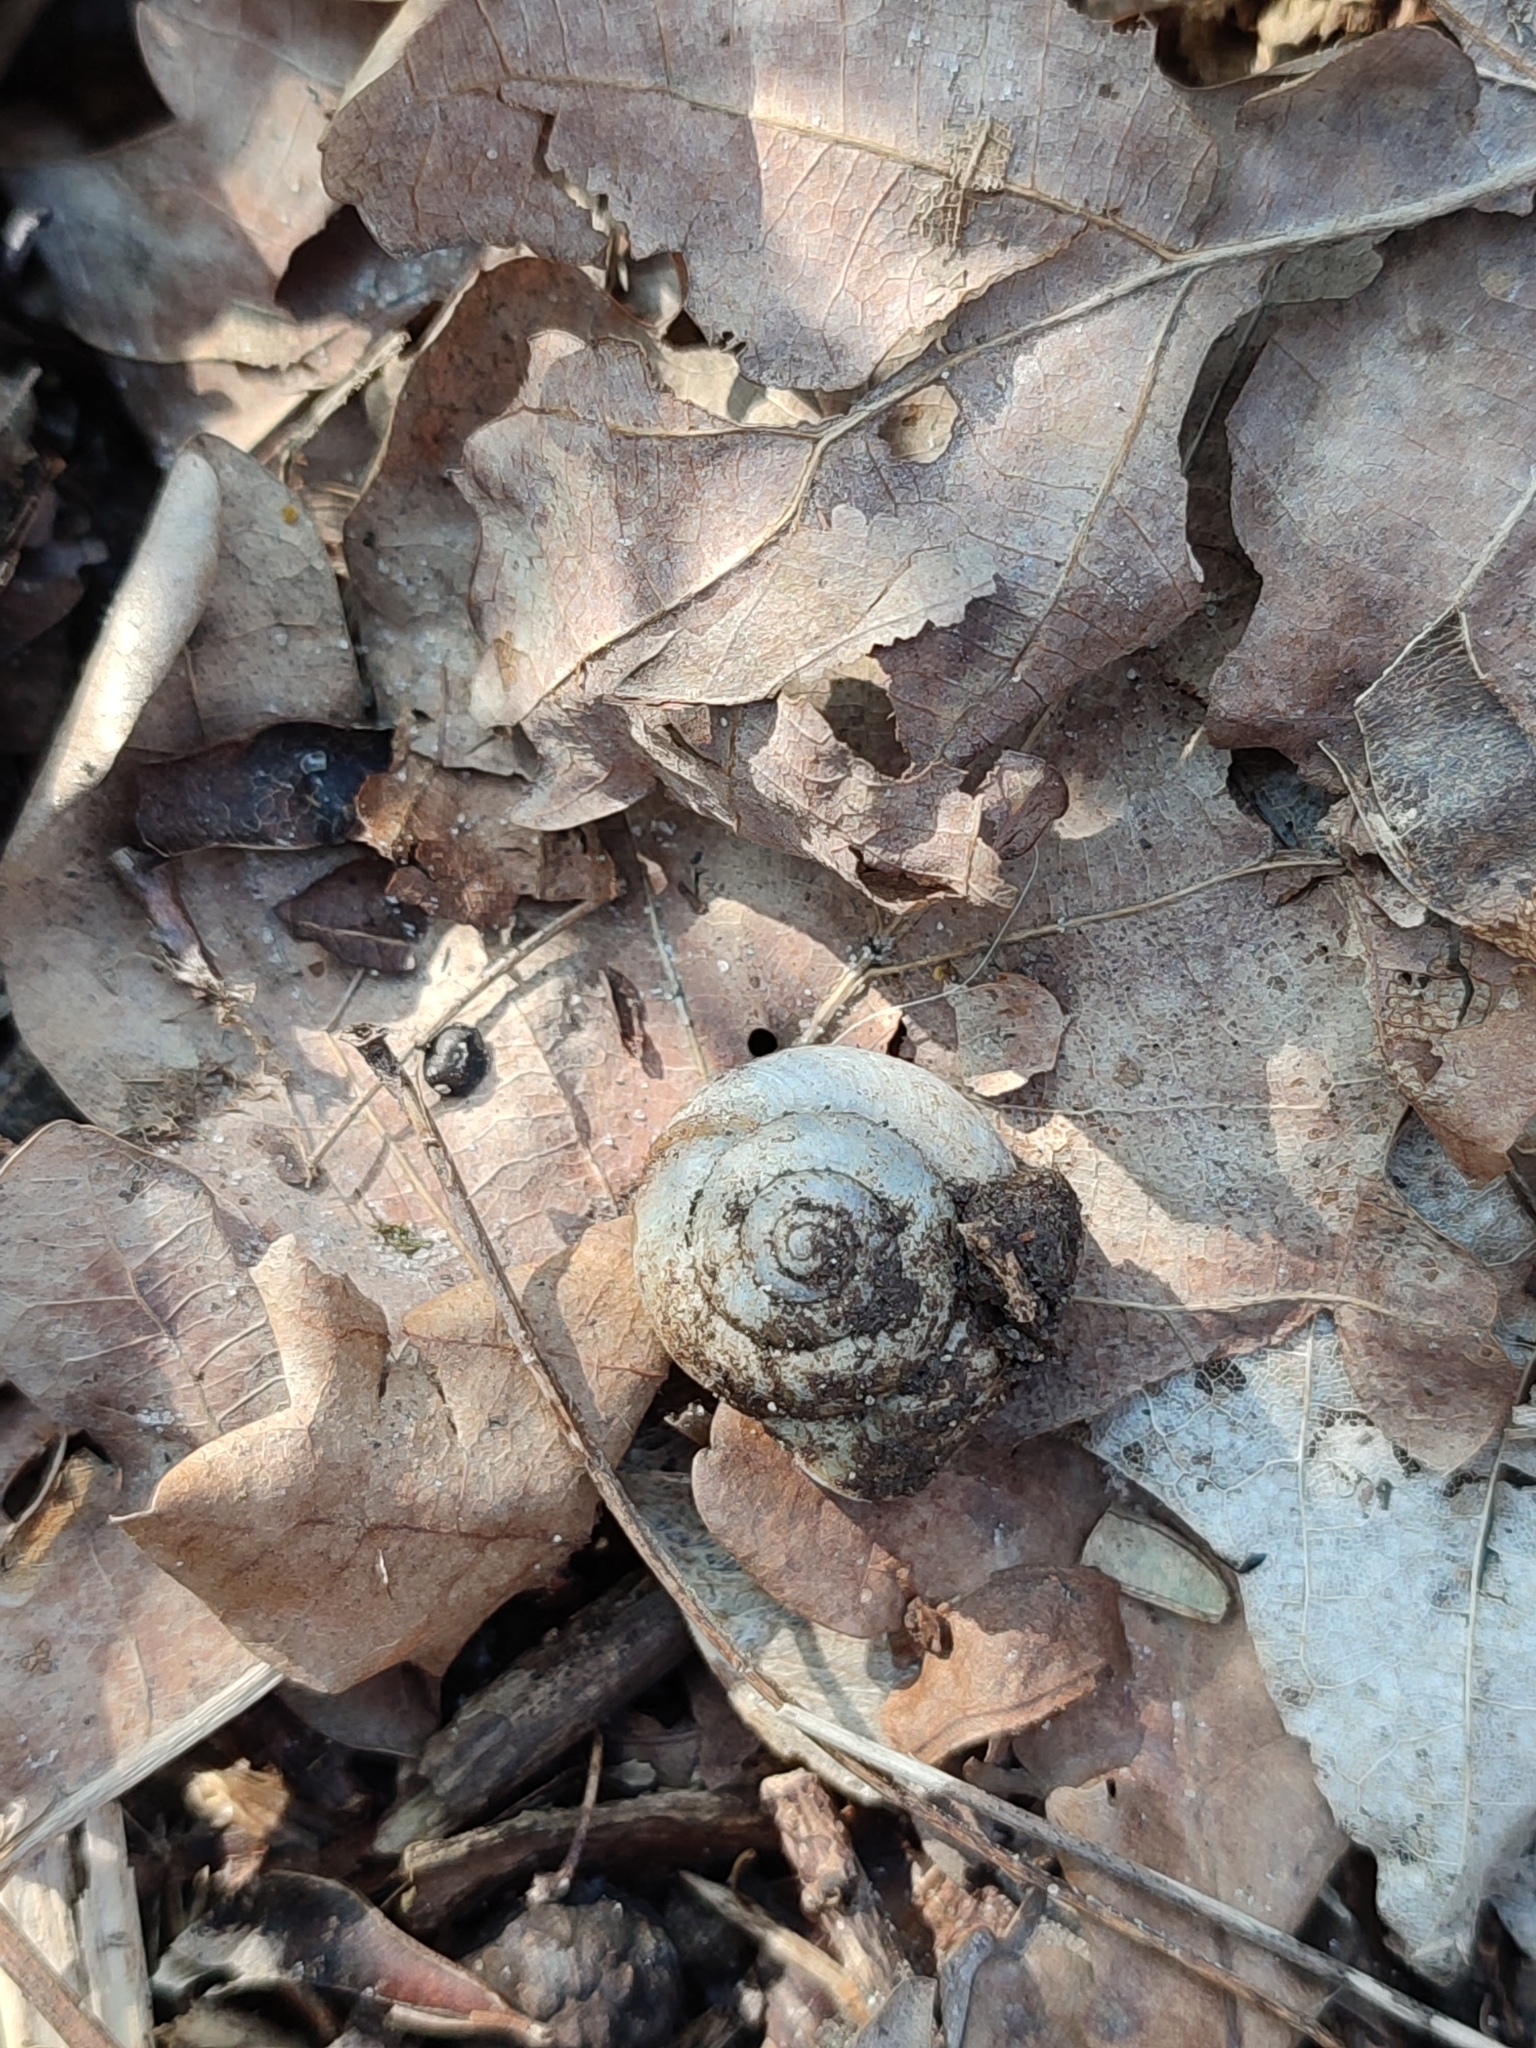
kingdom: Animalia
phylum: Mollusca
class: Gastropoda
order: Stylommatophora
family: Camaenidae
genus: Fruticicola
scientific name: Fruticicola fruticum
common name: Bush snail
